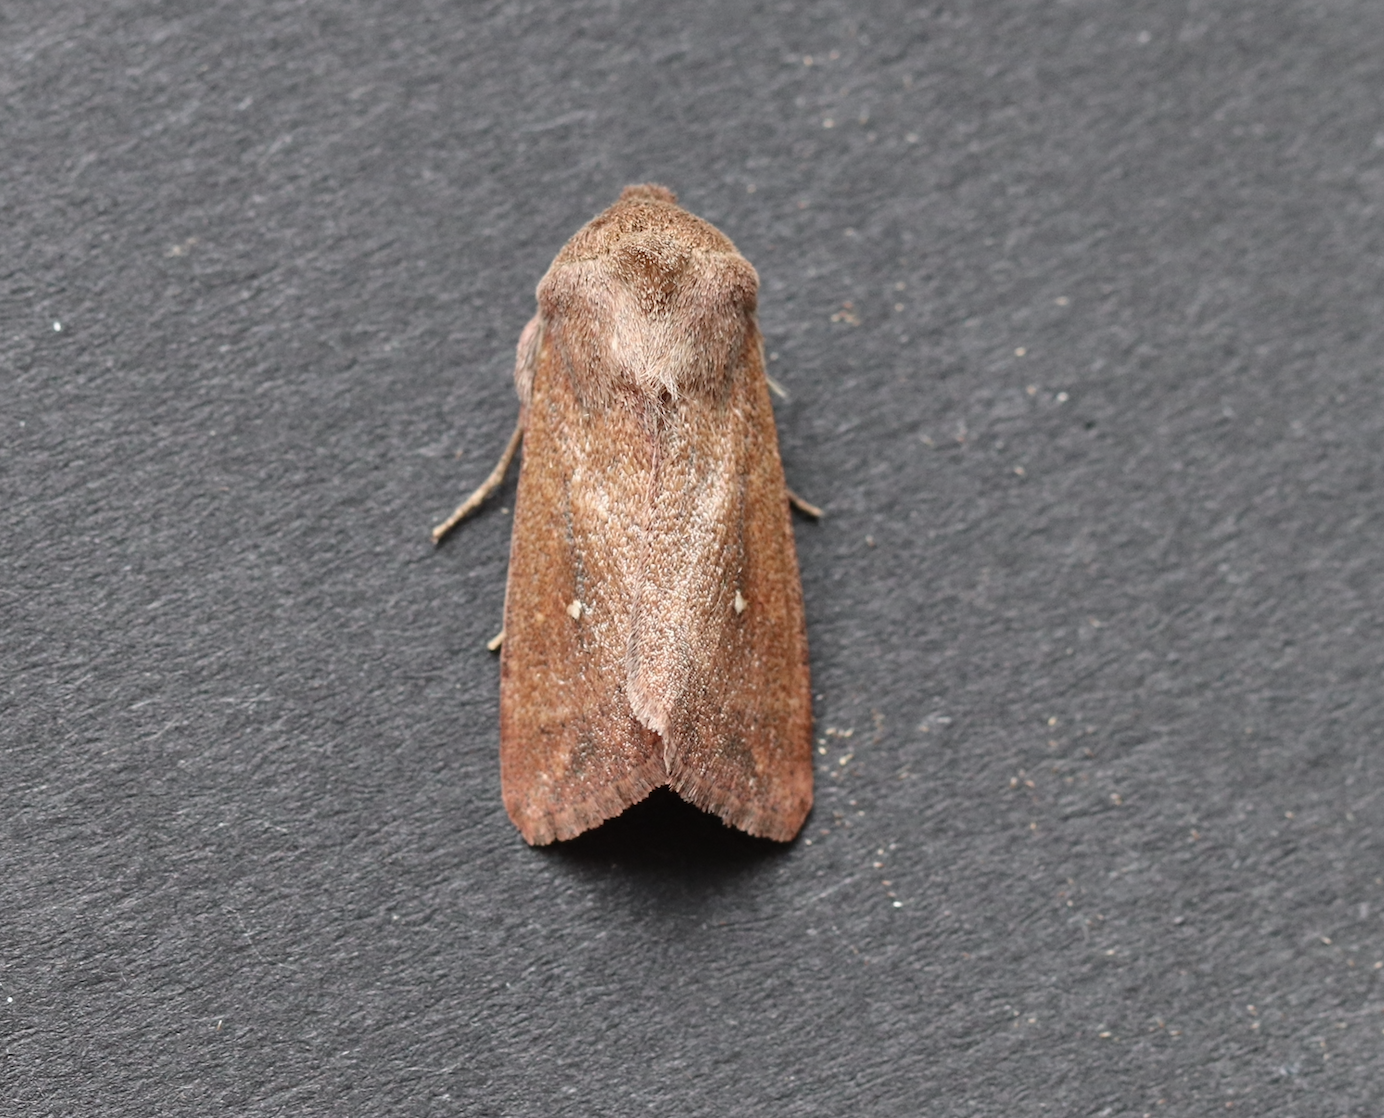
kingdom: Animalia
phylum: Arthropoda
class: Insecta
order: Lepidoptera
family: Noctuidae
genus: Mythimna
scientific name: Mythimna albipuncta
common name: White-point
